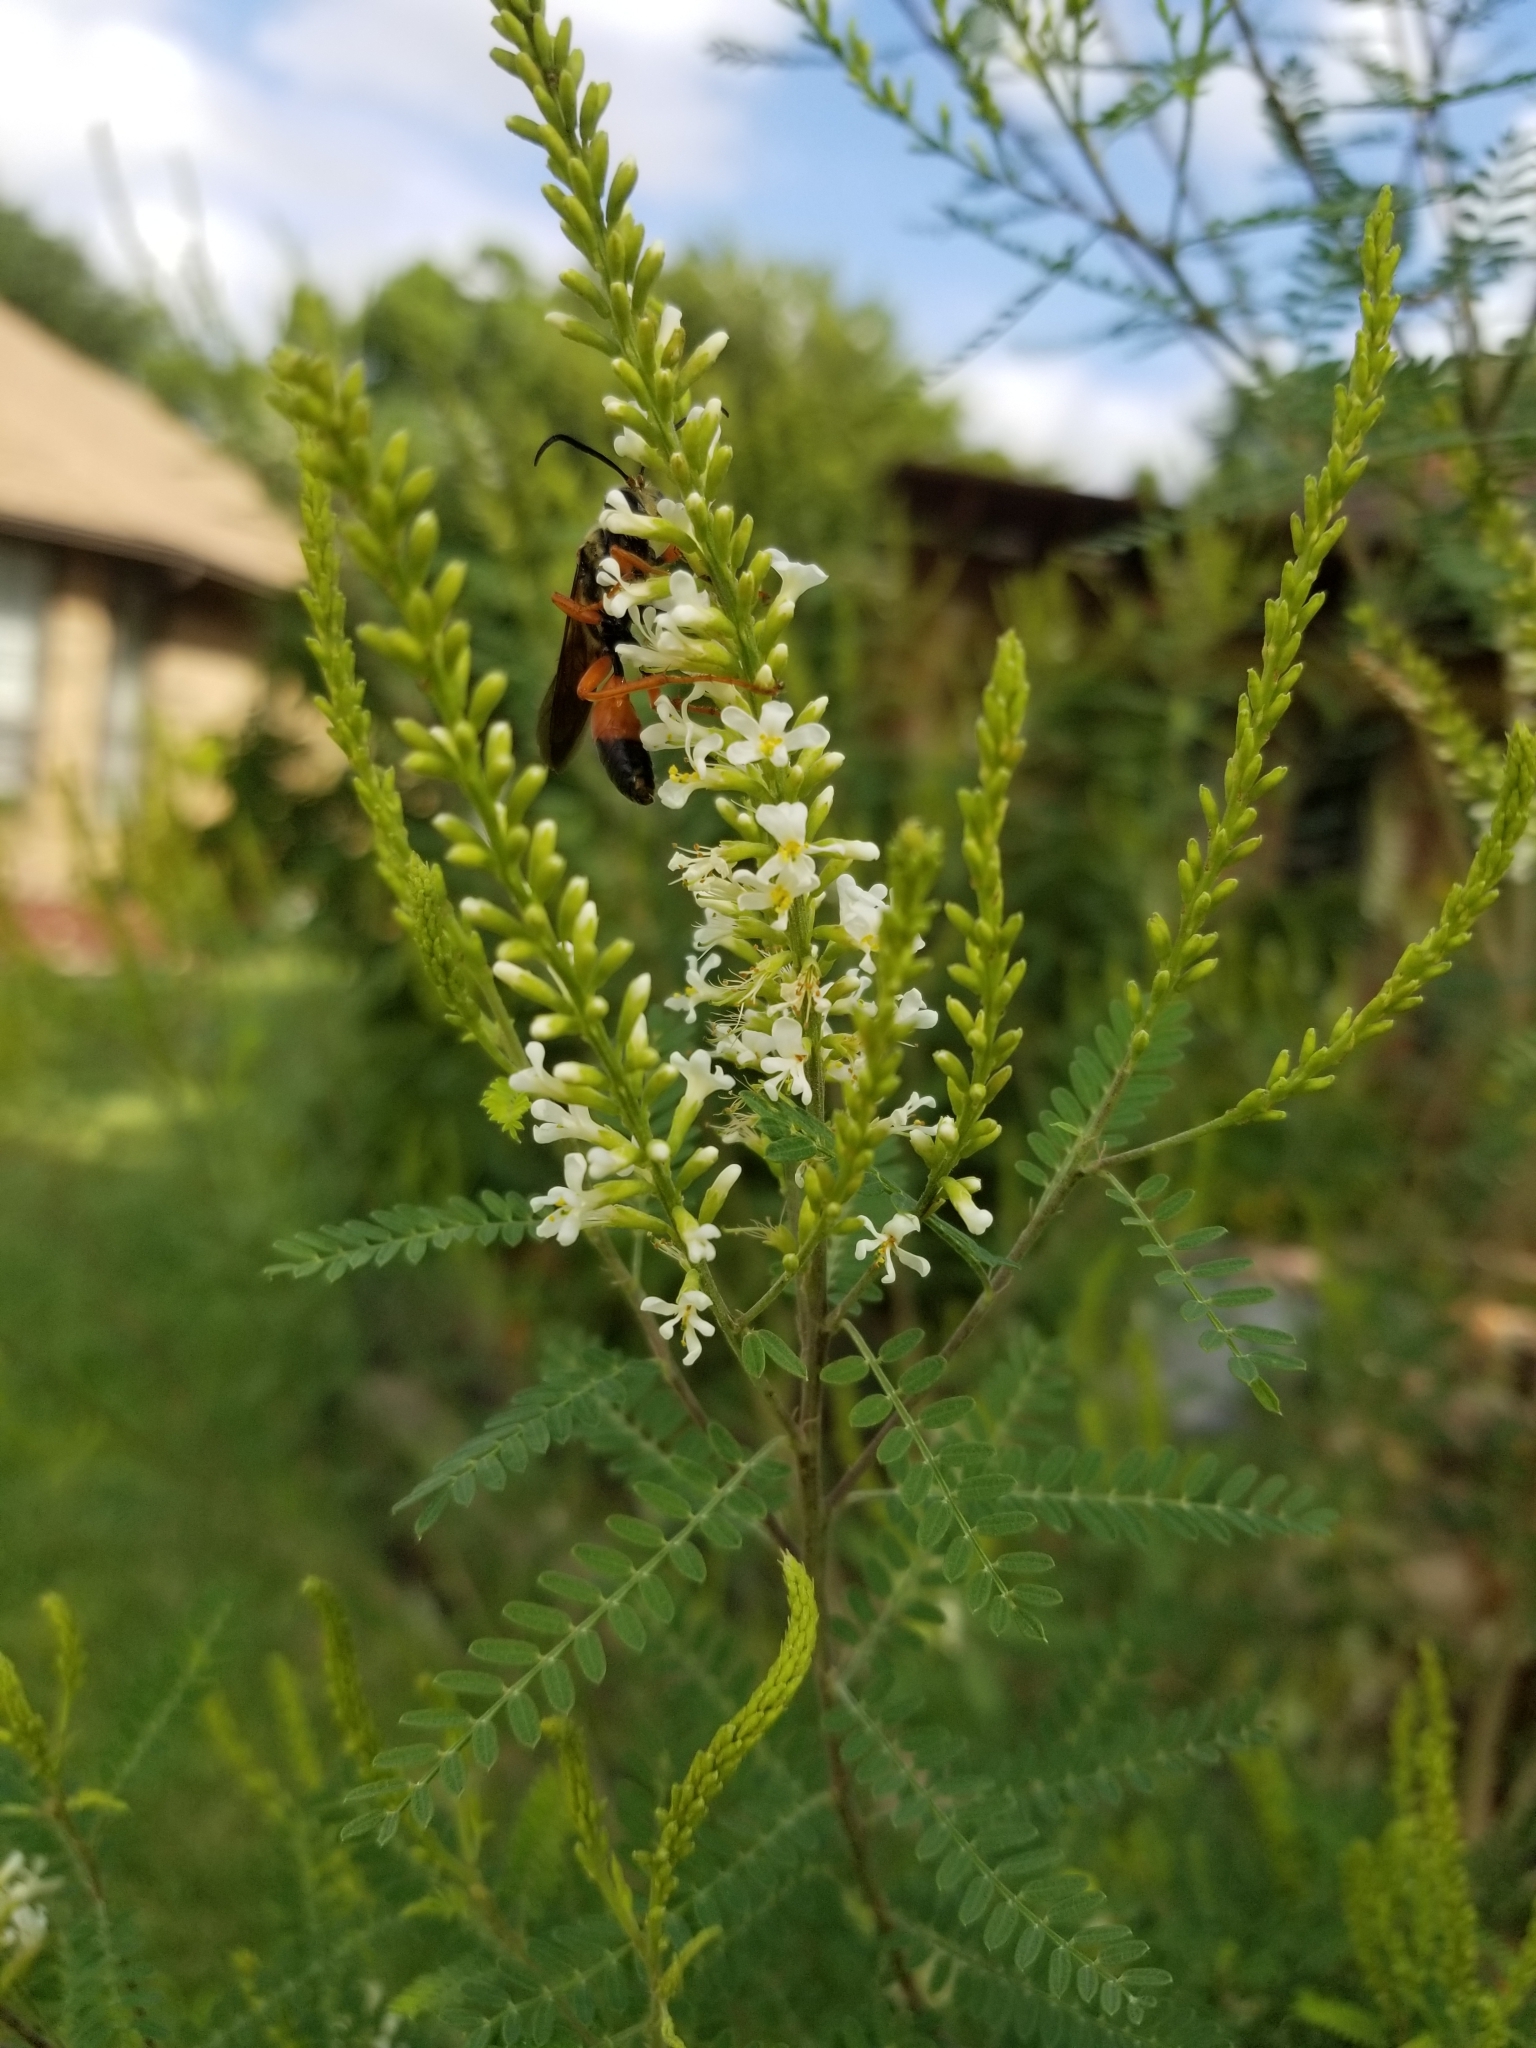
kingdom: Animalia
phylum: Arthropoda
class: Insecta
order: Hymenoptera
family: Sphecidae
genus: Sphex
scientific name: Sphex ichneumoneus
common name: Great golden digger wasp
